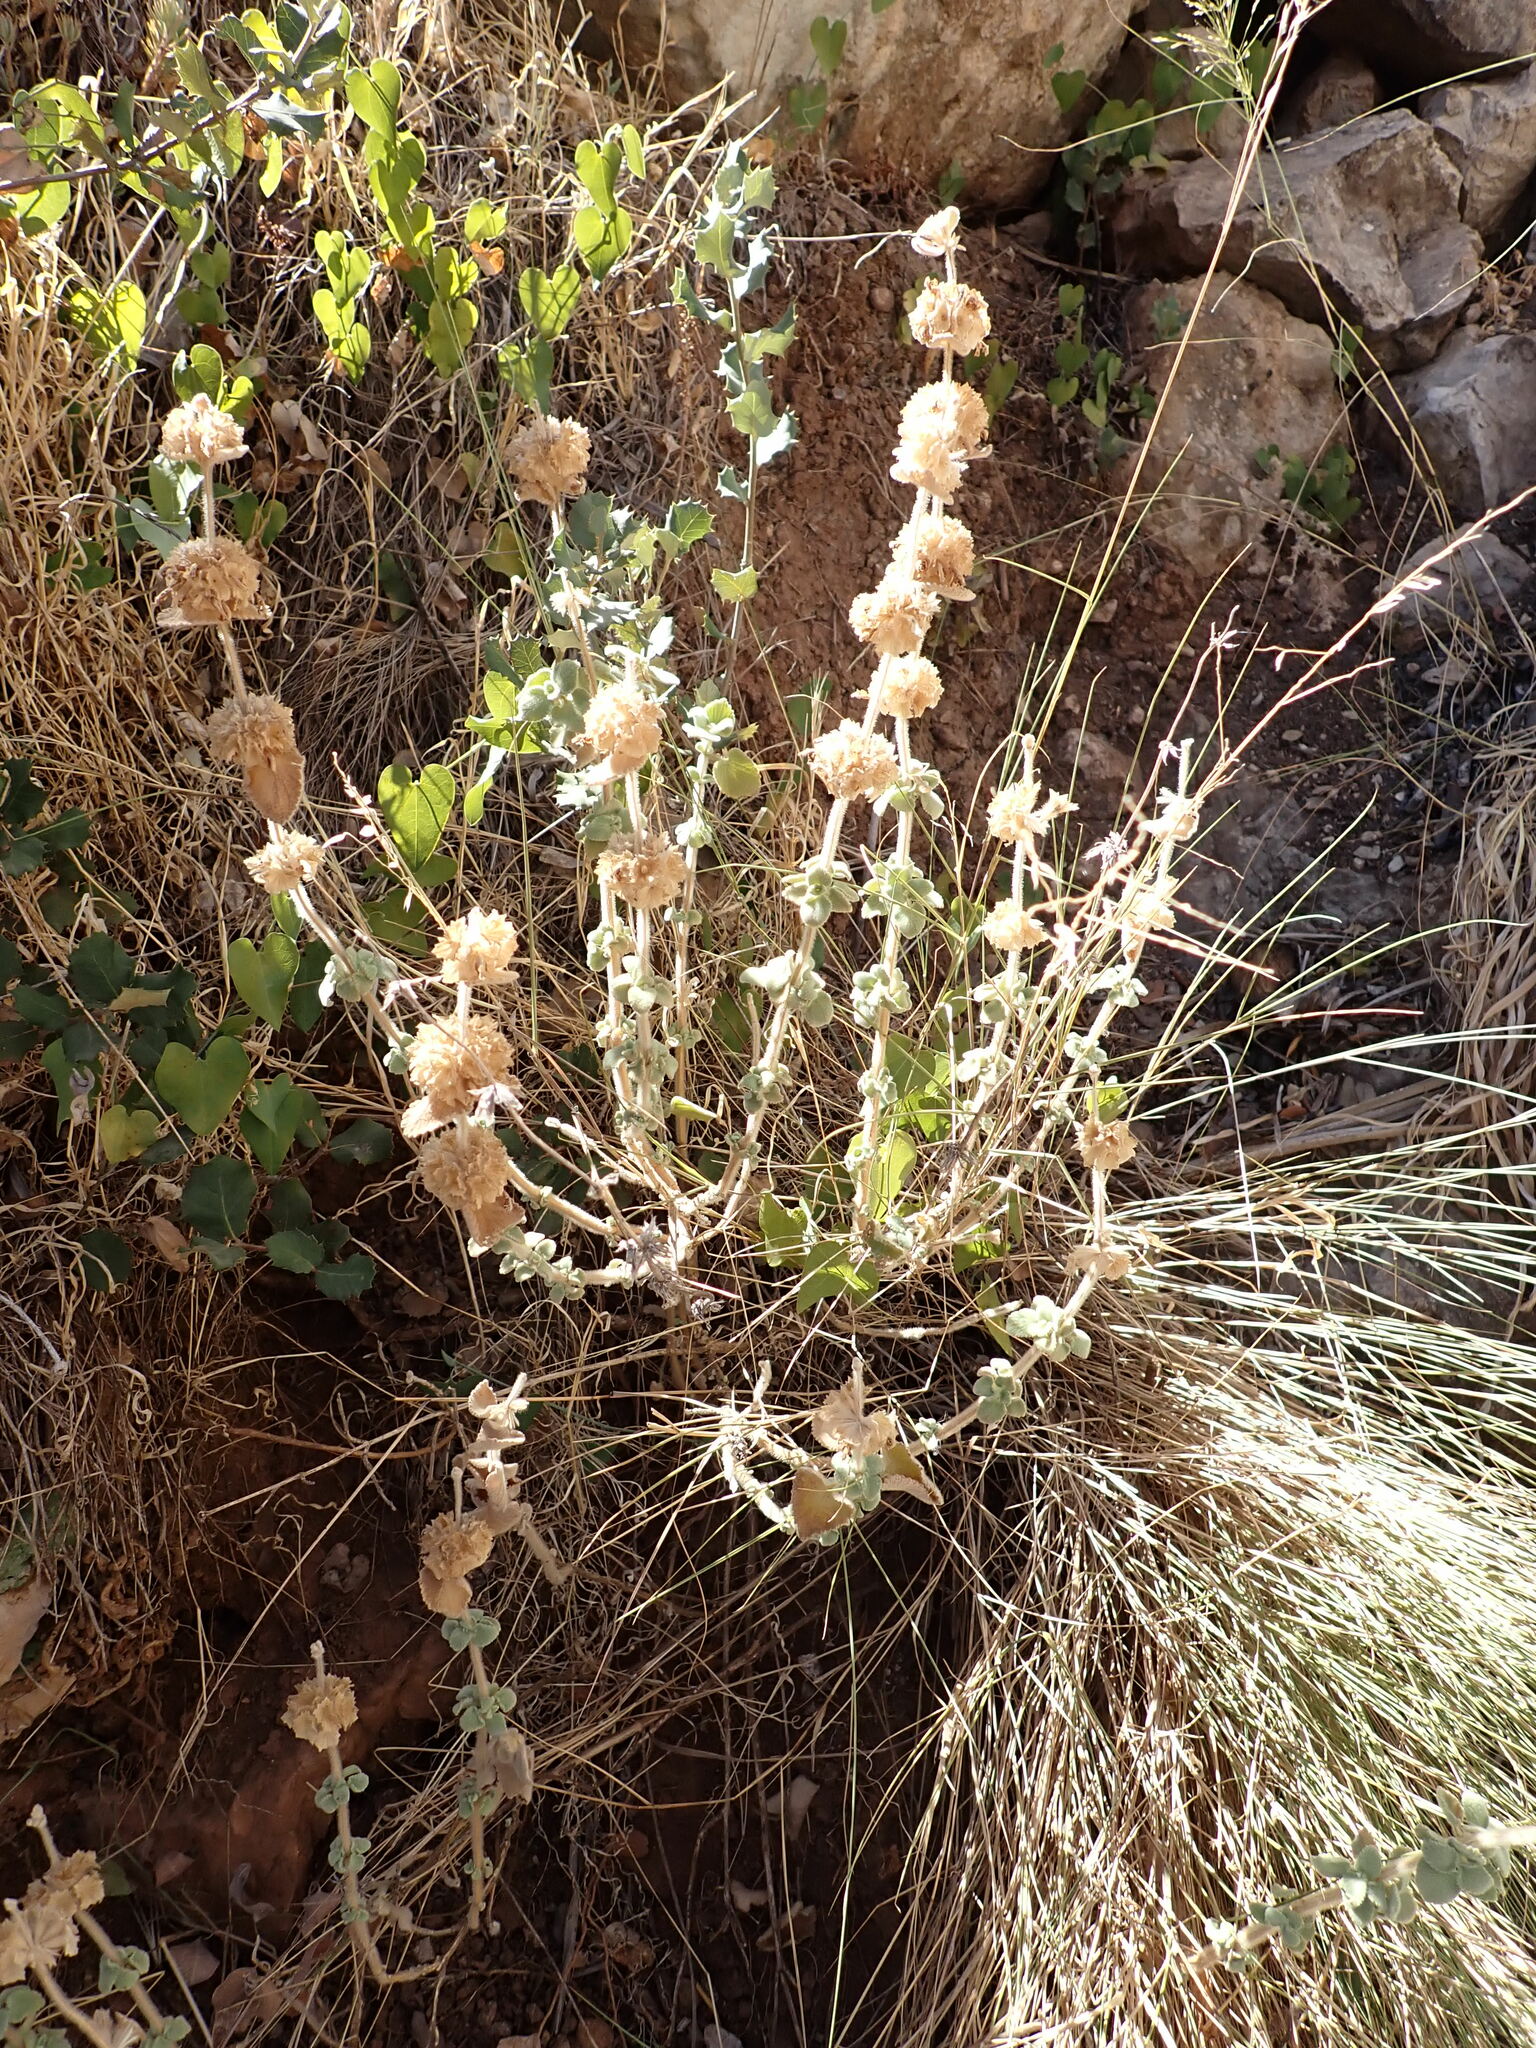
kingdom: Plantae
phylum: Tracheophyta
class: Magnoliopsida
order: Lamiales
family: Lamiaceae
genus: Pseudodictamnus
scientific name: Pseudodictamnus hirsutus
